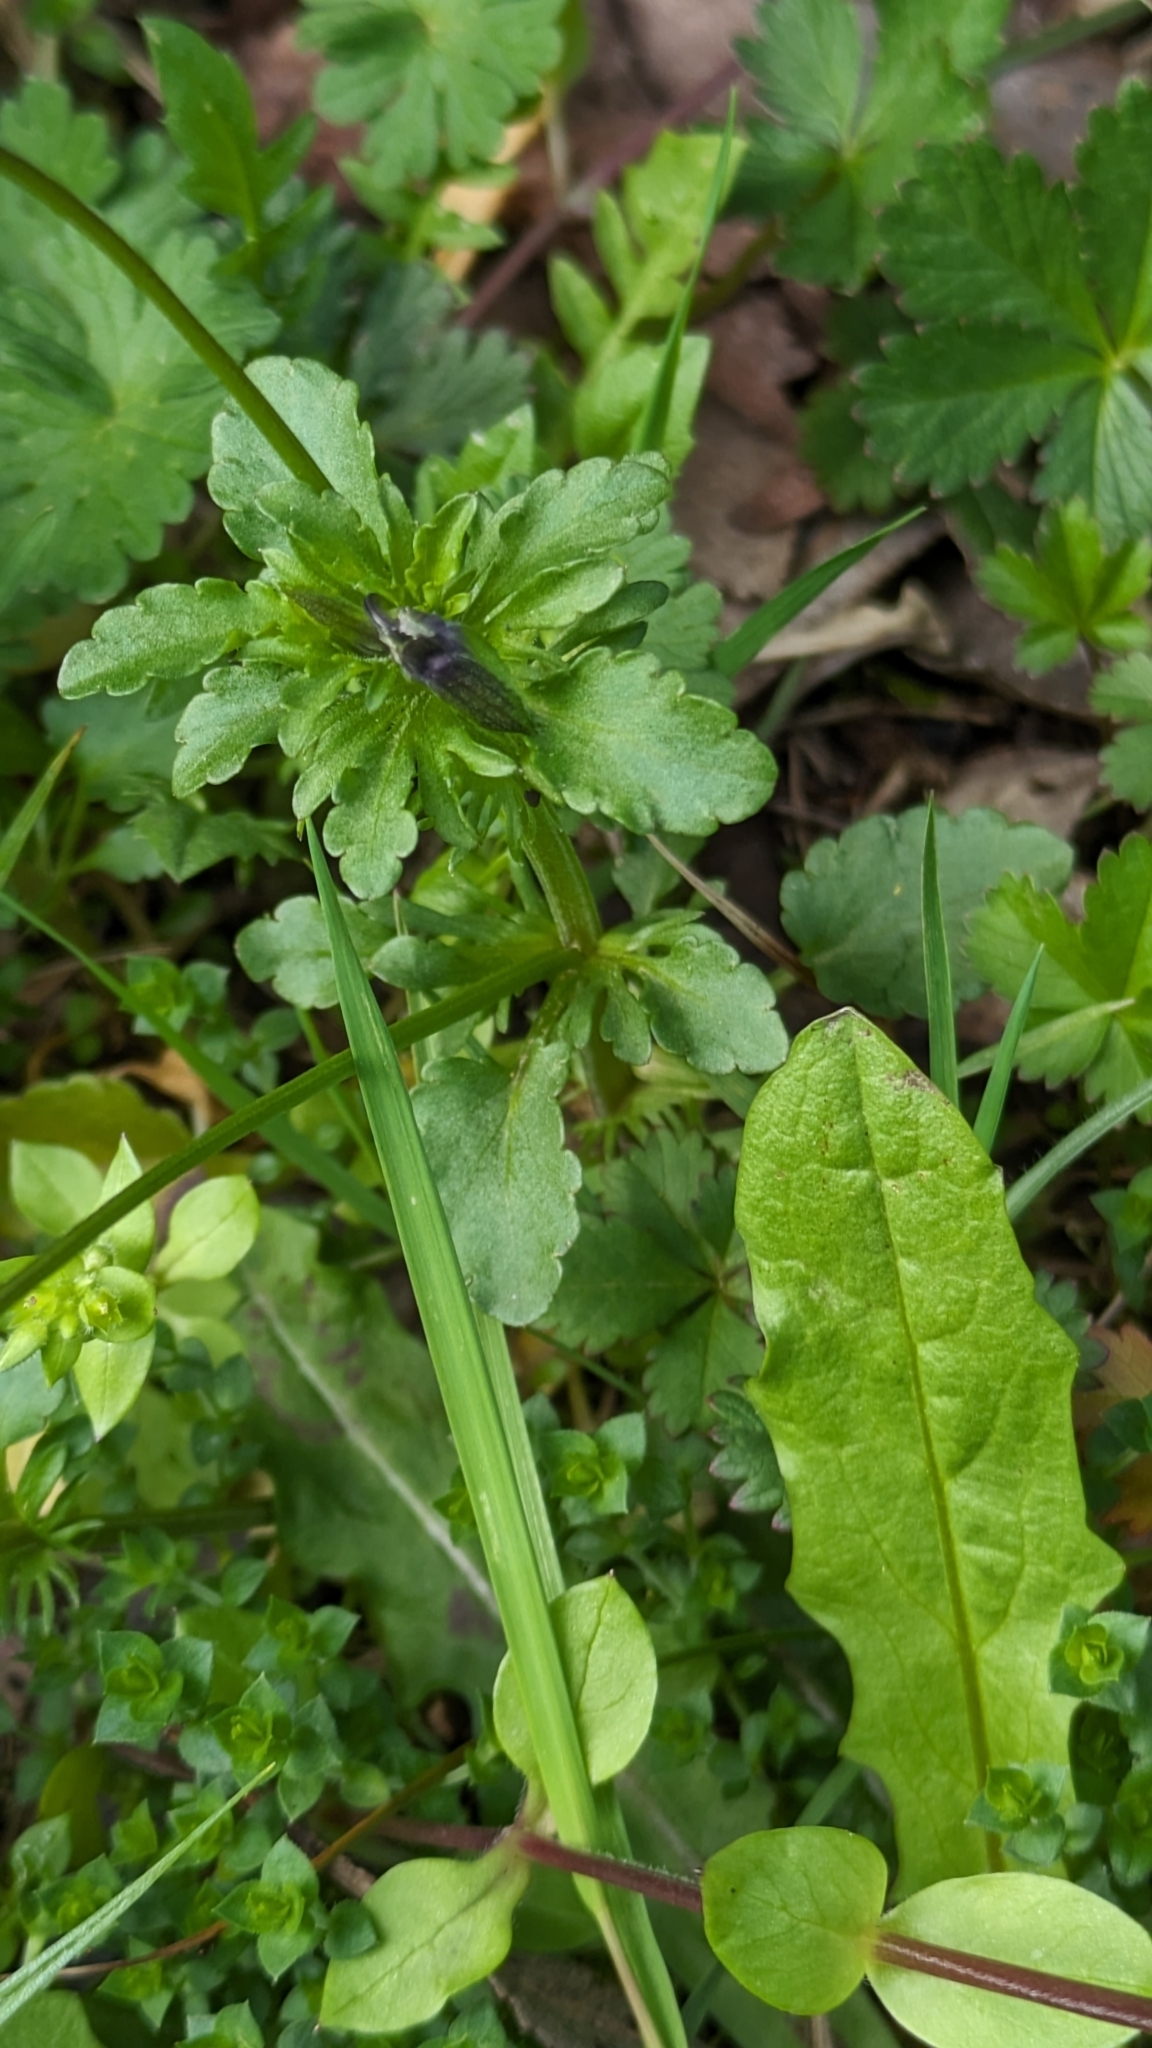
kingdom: Plantae
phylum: Tracheophyta
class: Magnoliopsida
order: Malpighiales
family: Violaceae
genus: Viola
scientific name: Viola arvensis
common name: Field pansy
